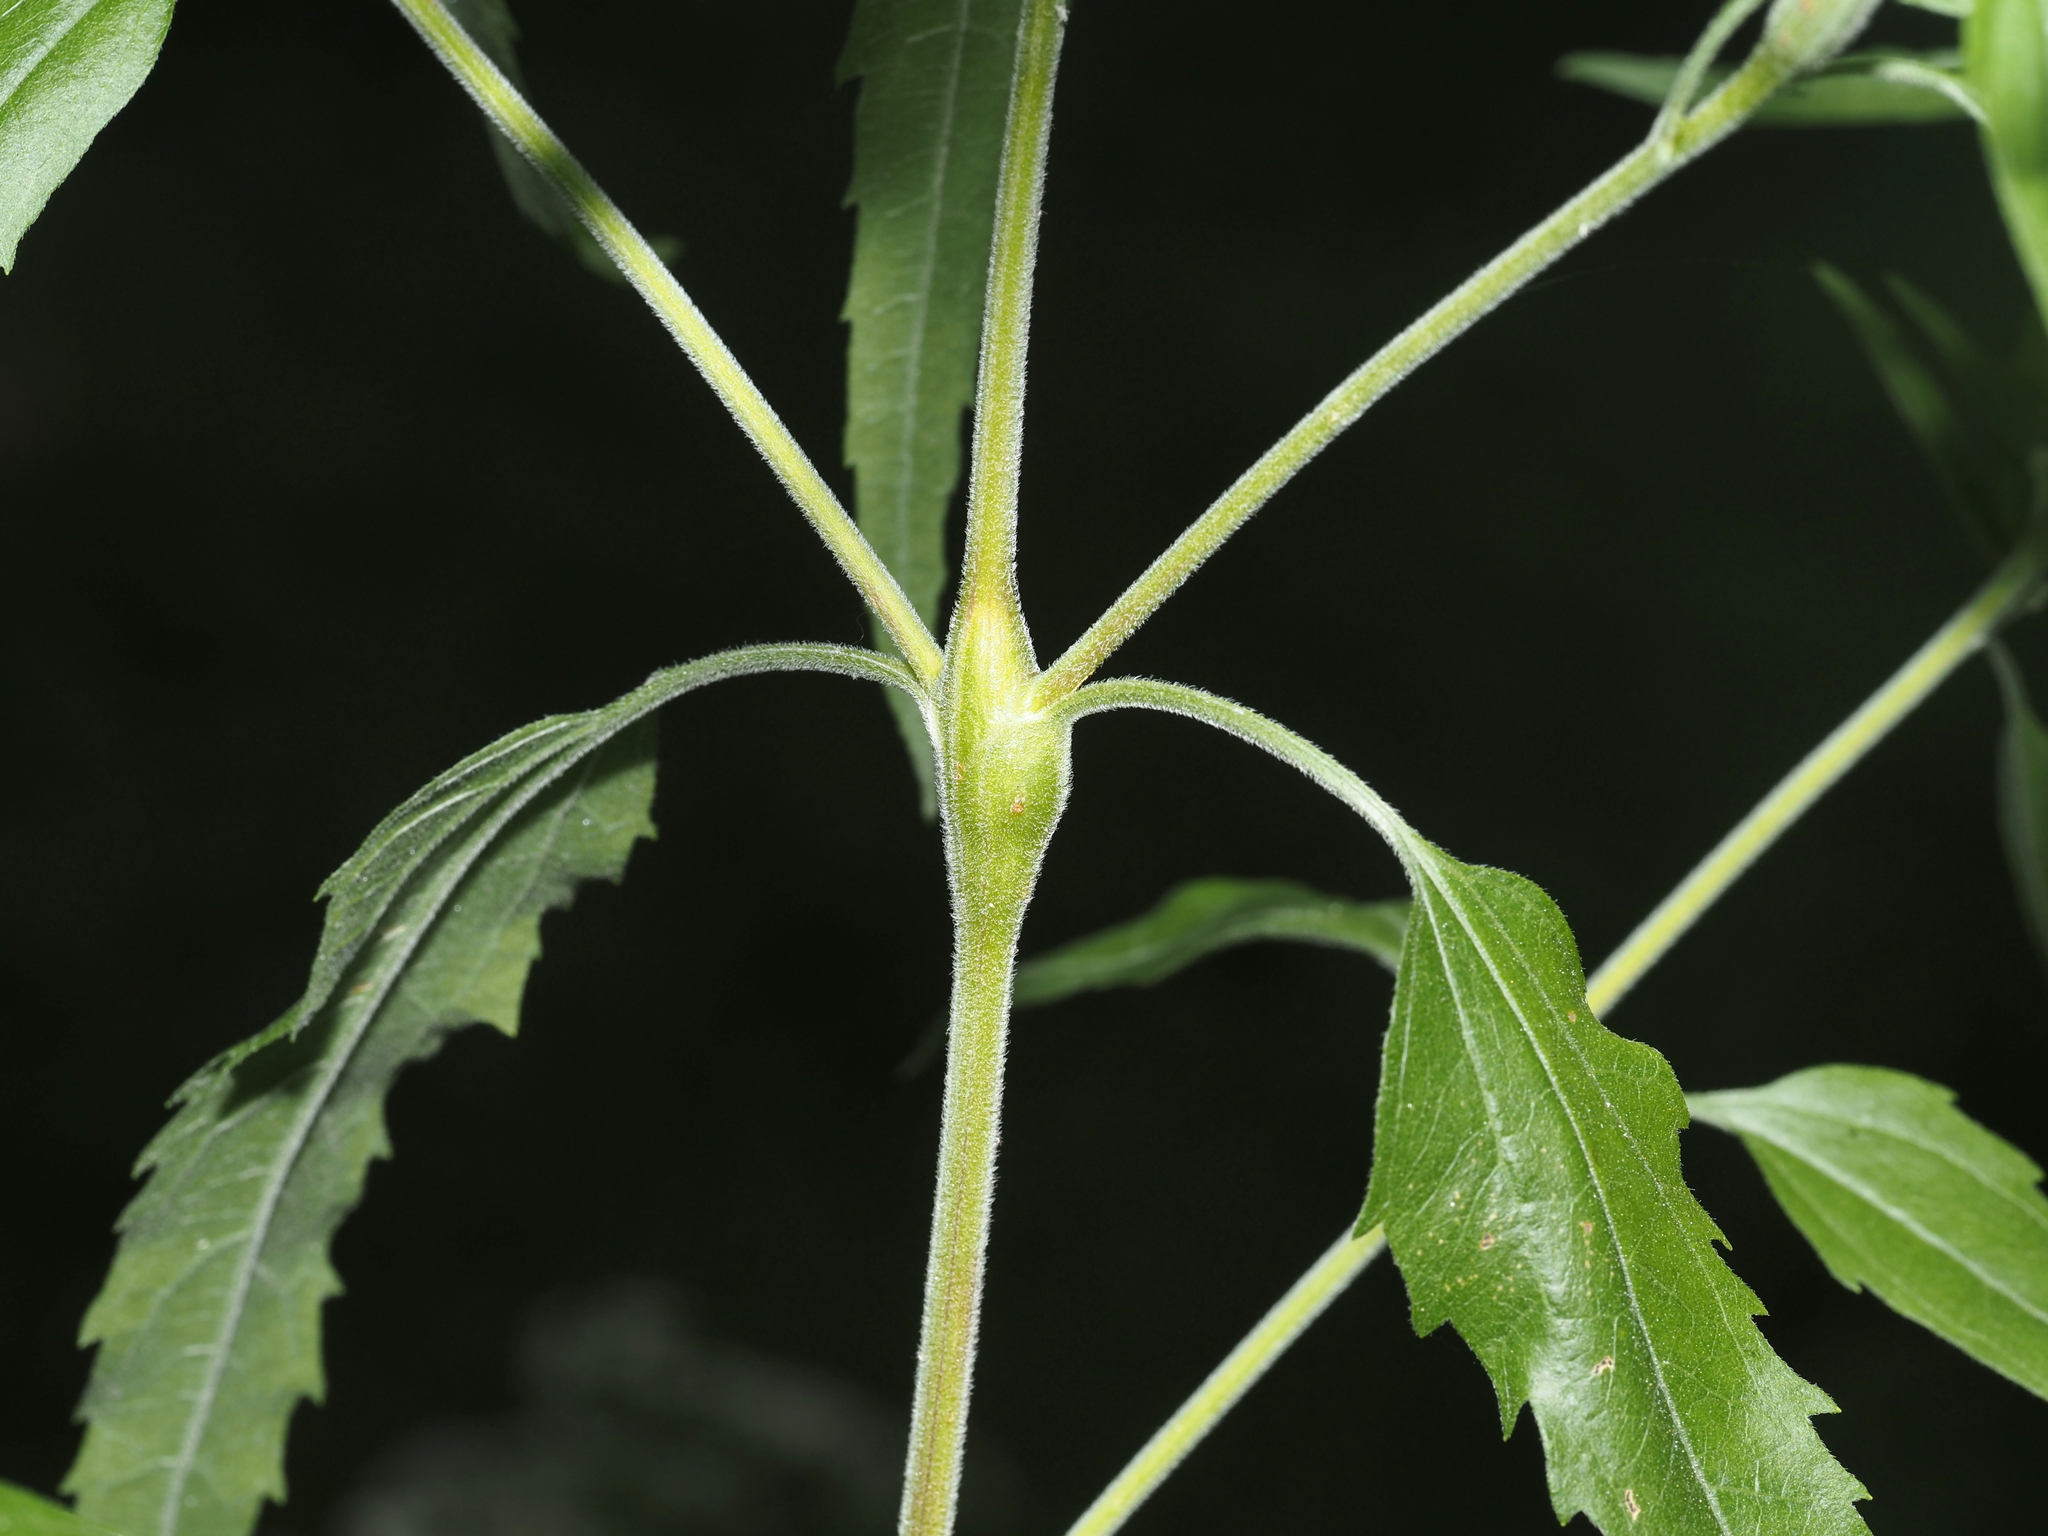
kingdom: Animalia
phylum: Arthropoda
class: Insecta
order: Diptera
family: Cecidomyiidae
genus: Neolasioptera
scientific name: Neolasioptera perfoliata
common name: Boneset stem midge
